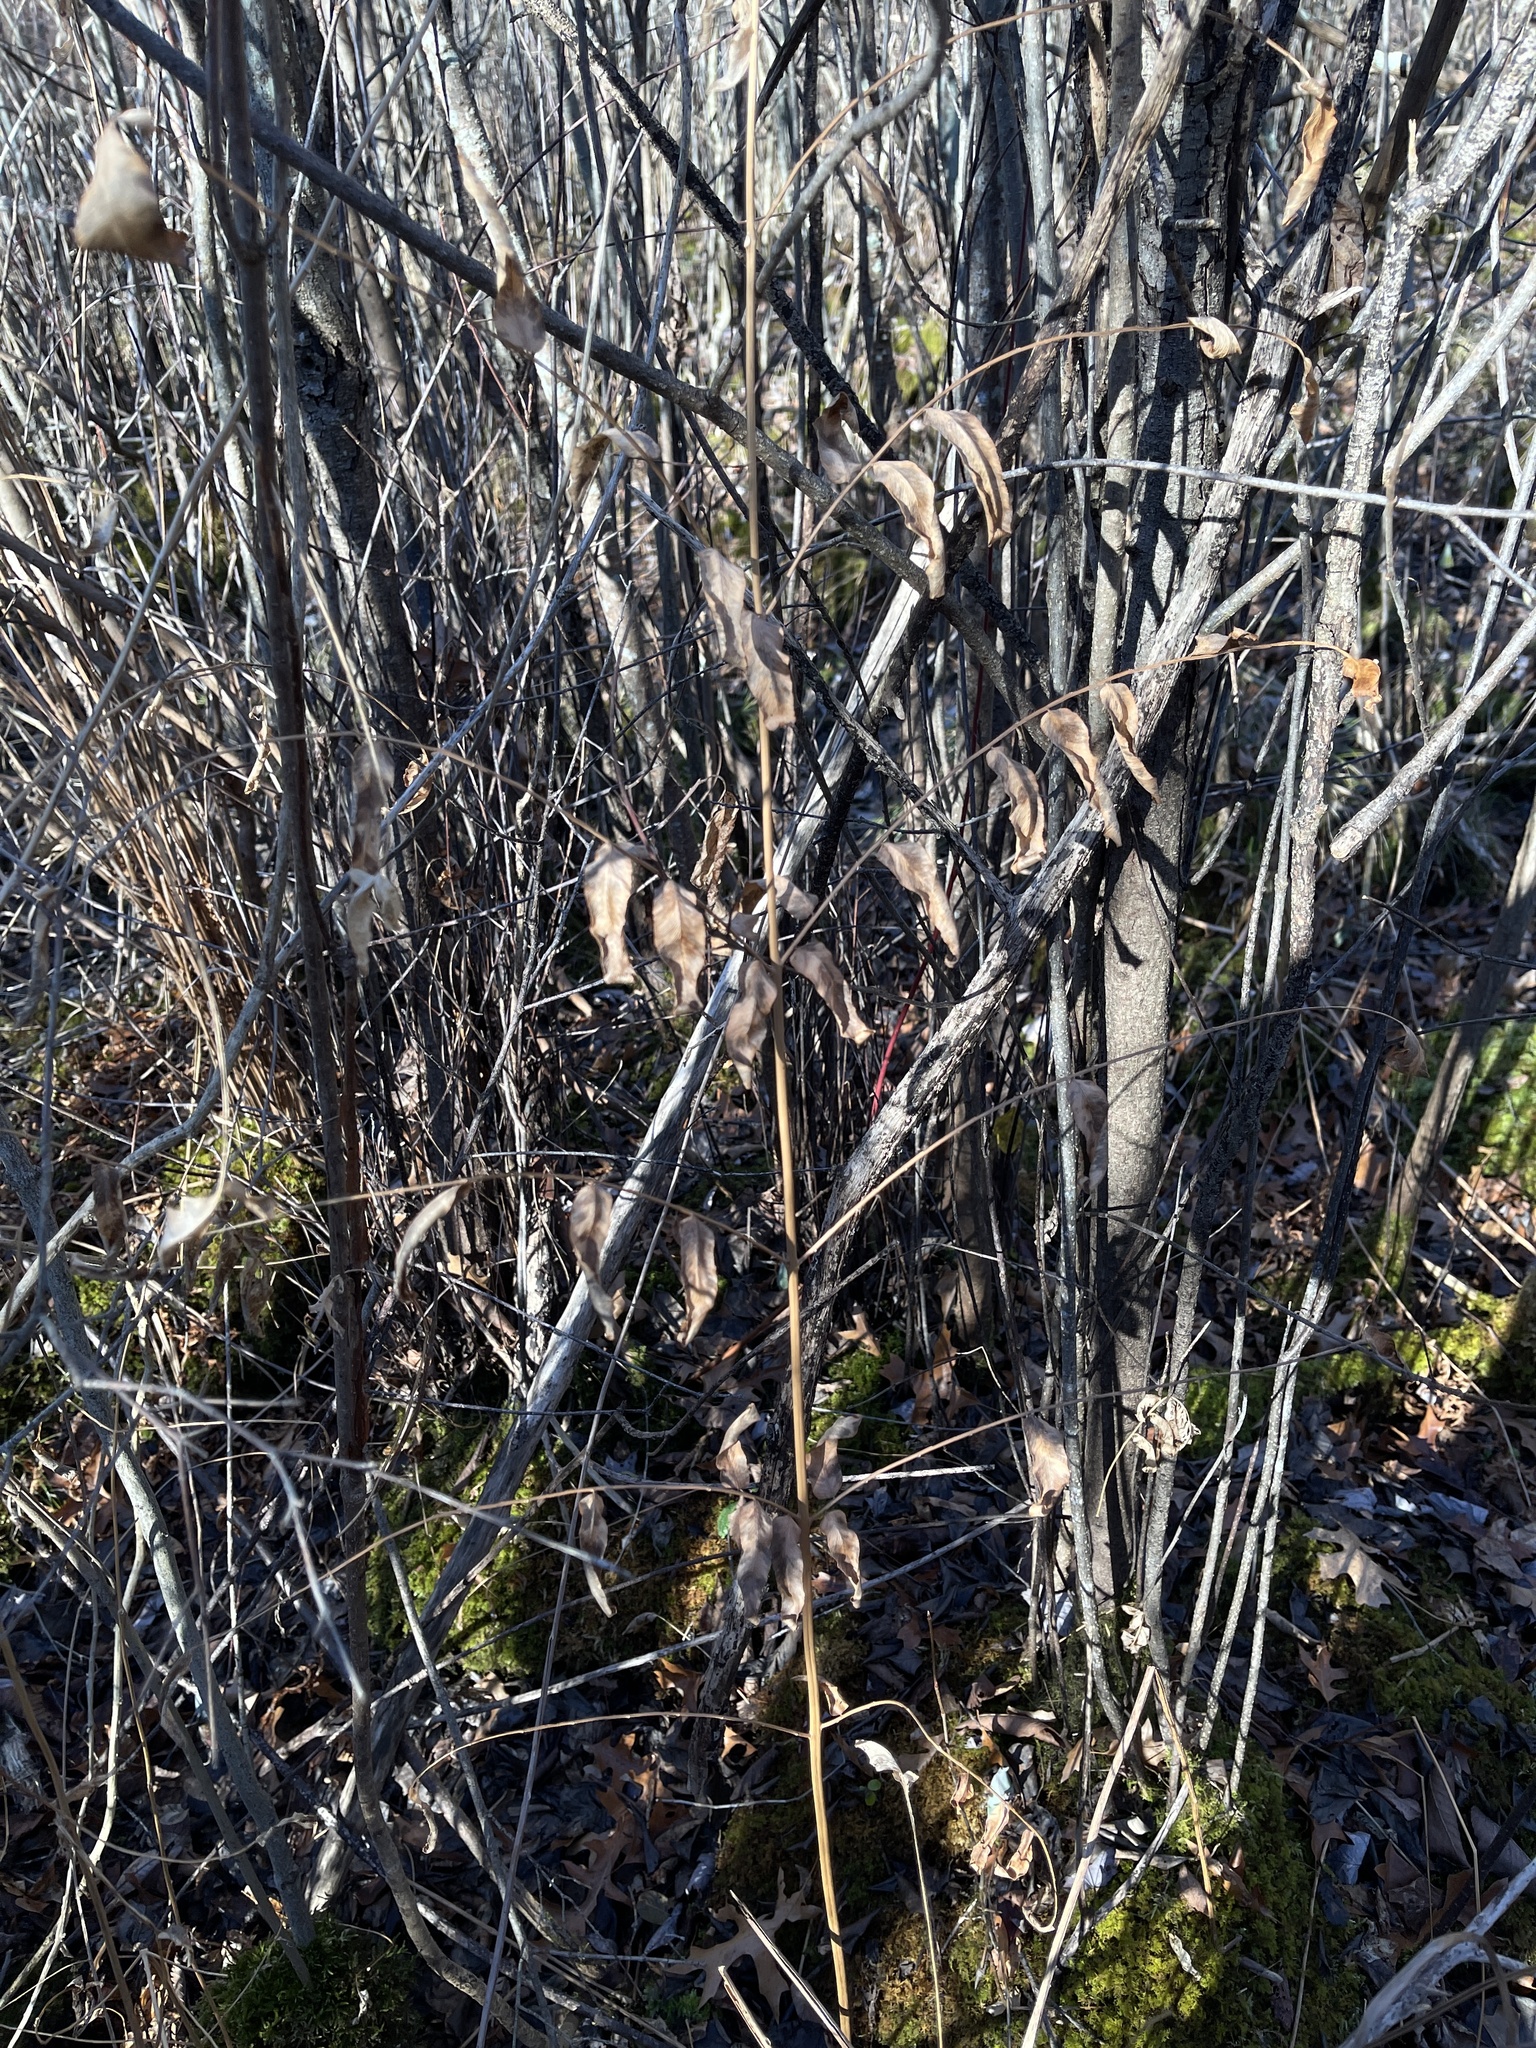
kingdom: Plantae
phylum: Tracheophyta
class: Polypodiopsida
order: Osmundales
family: Osmundaceae
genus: Osmunda
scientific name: Osmunda spectabilis
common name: American royal fern
